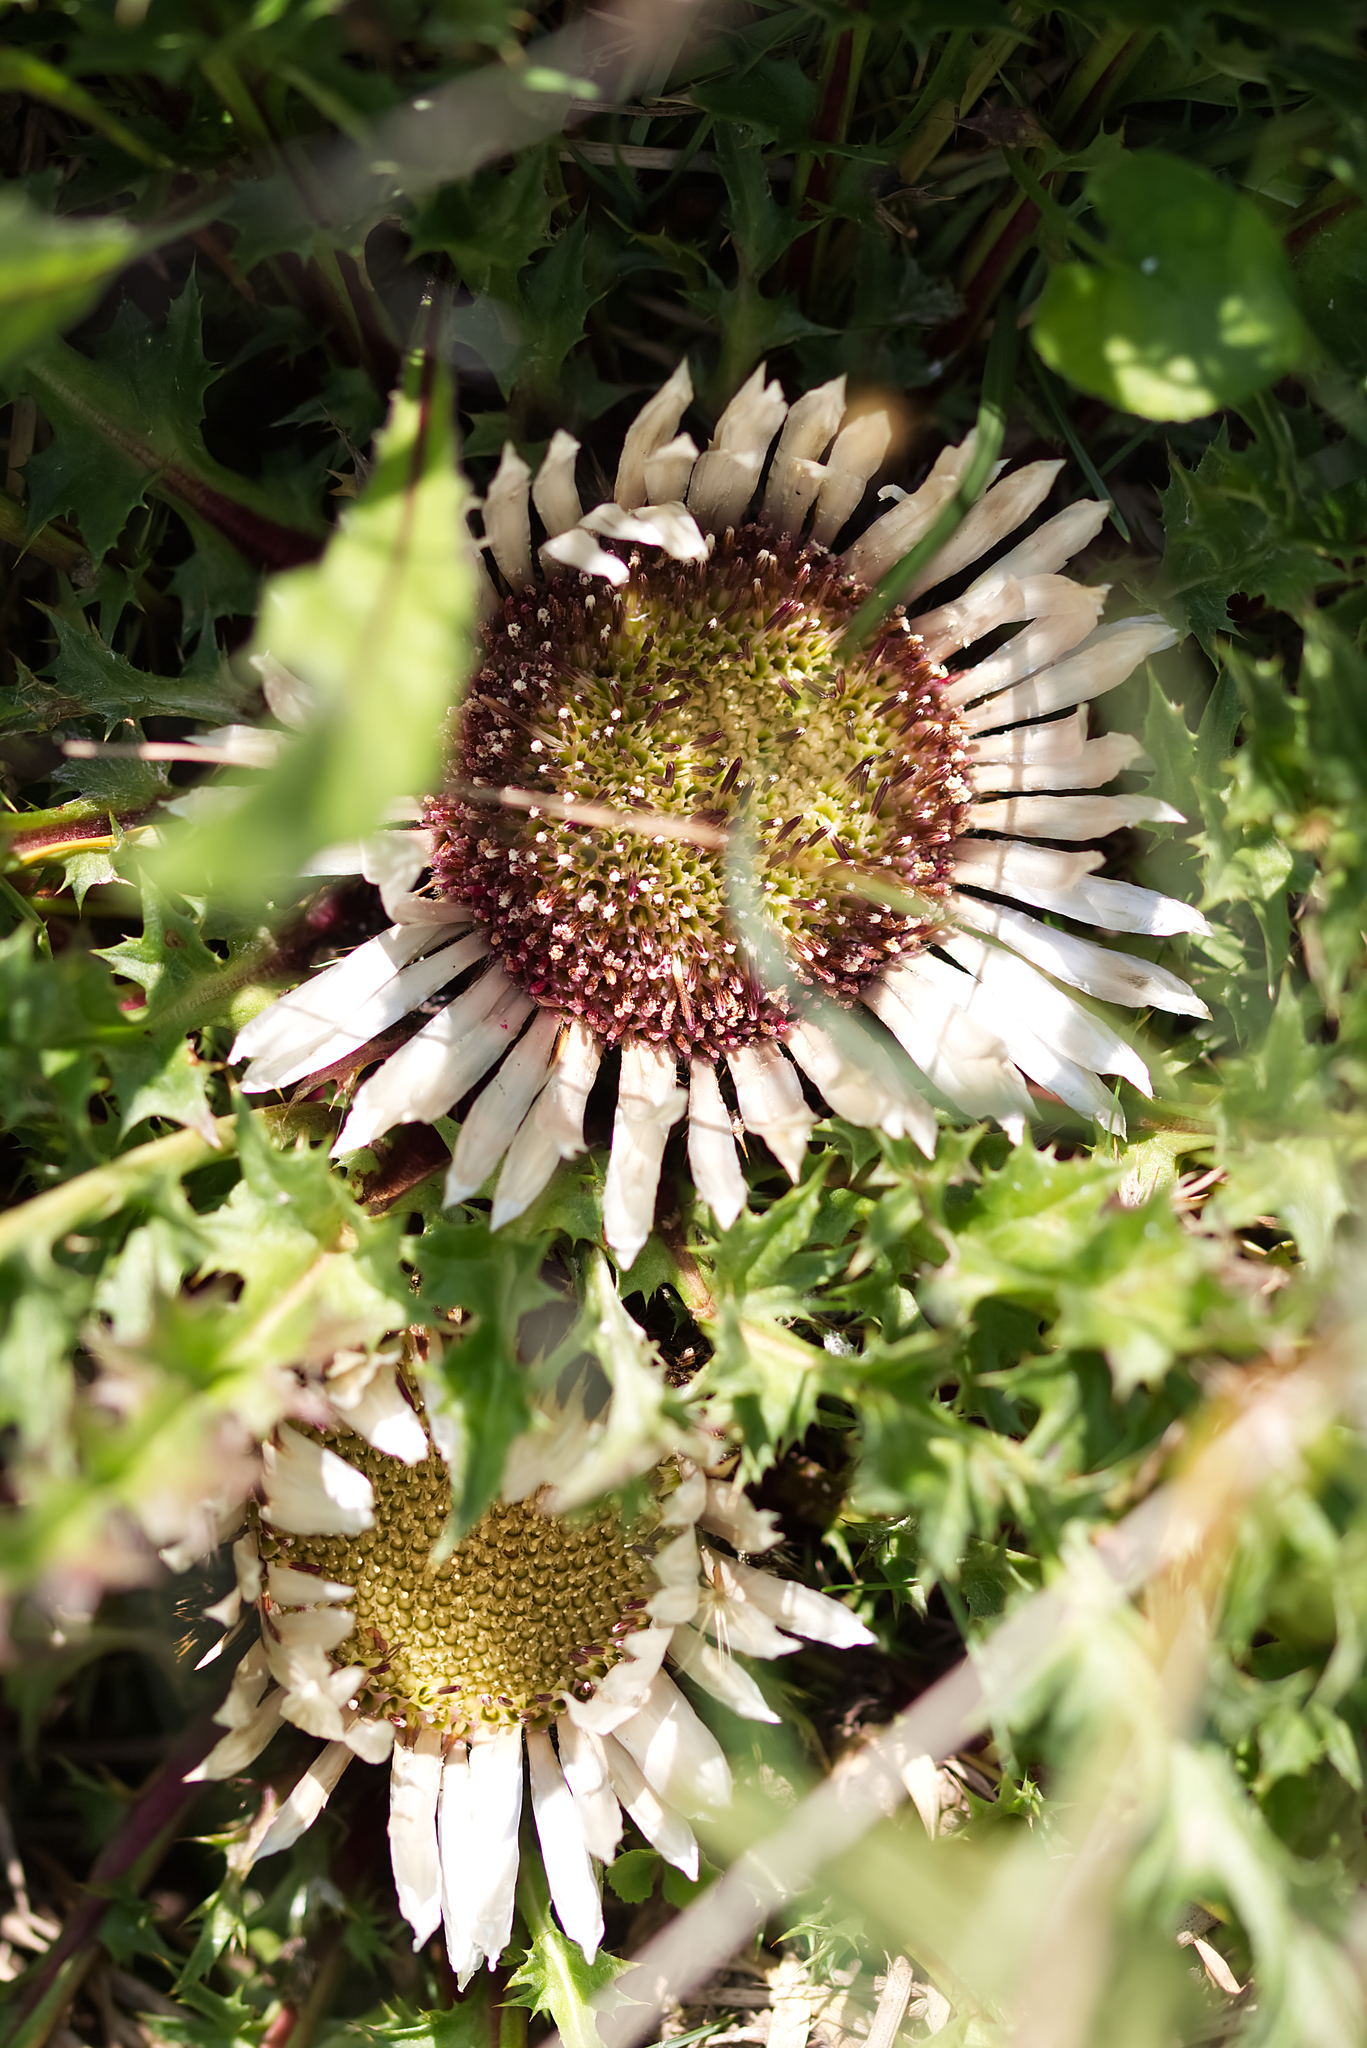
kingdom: Plantae
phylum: Tracheophyta
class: Magnoliopsida
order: Asterales
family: Asteraceae
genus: Carlina
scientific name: Carlina acaulis
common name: Stemless carline thistle
